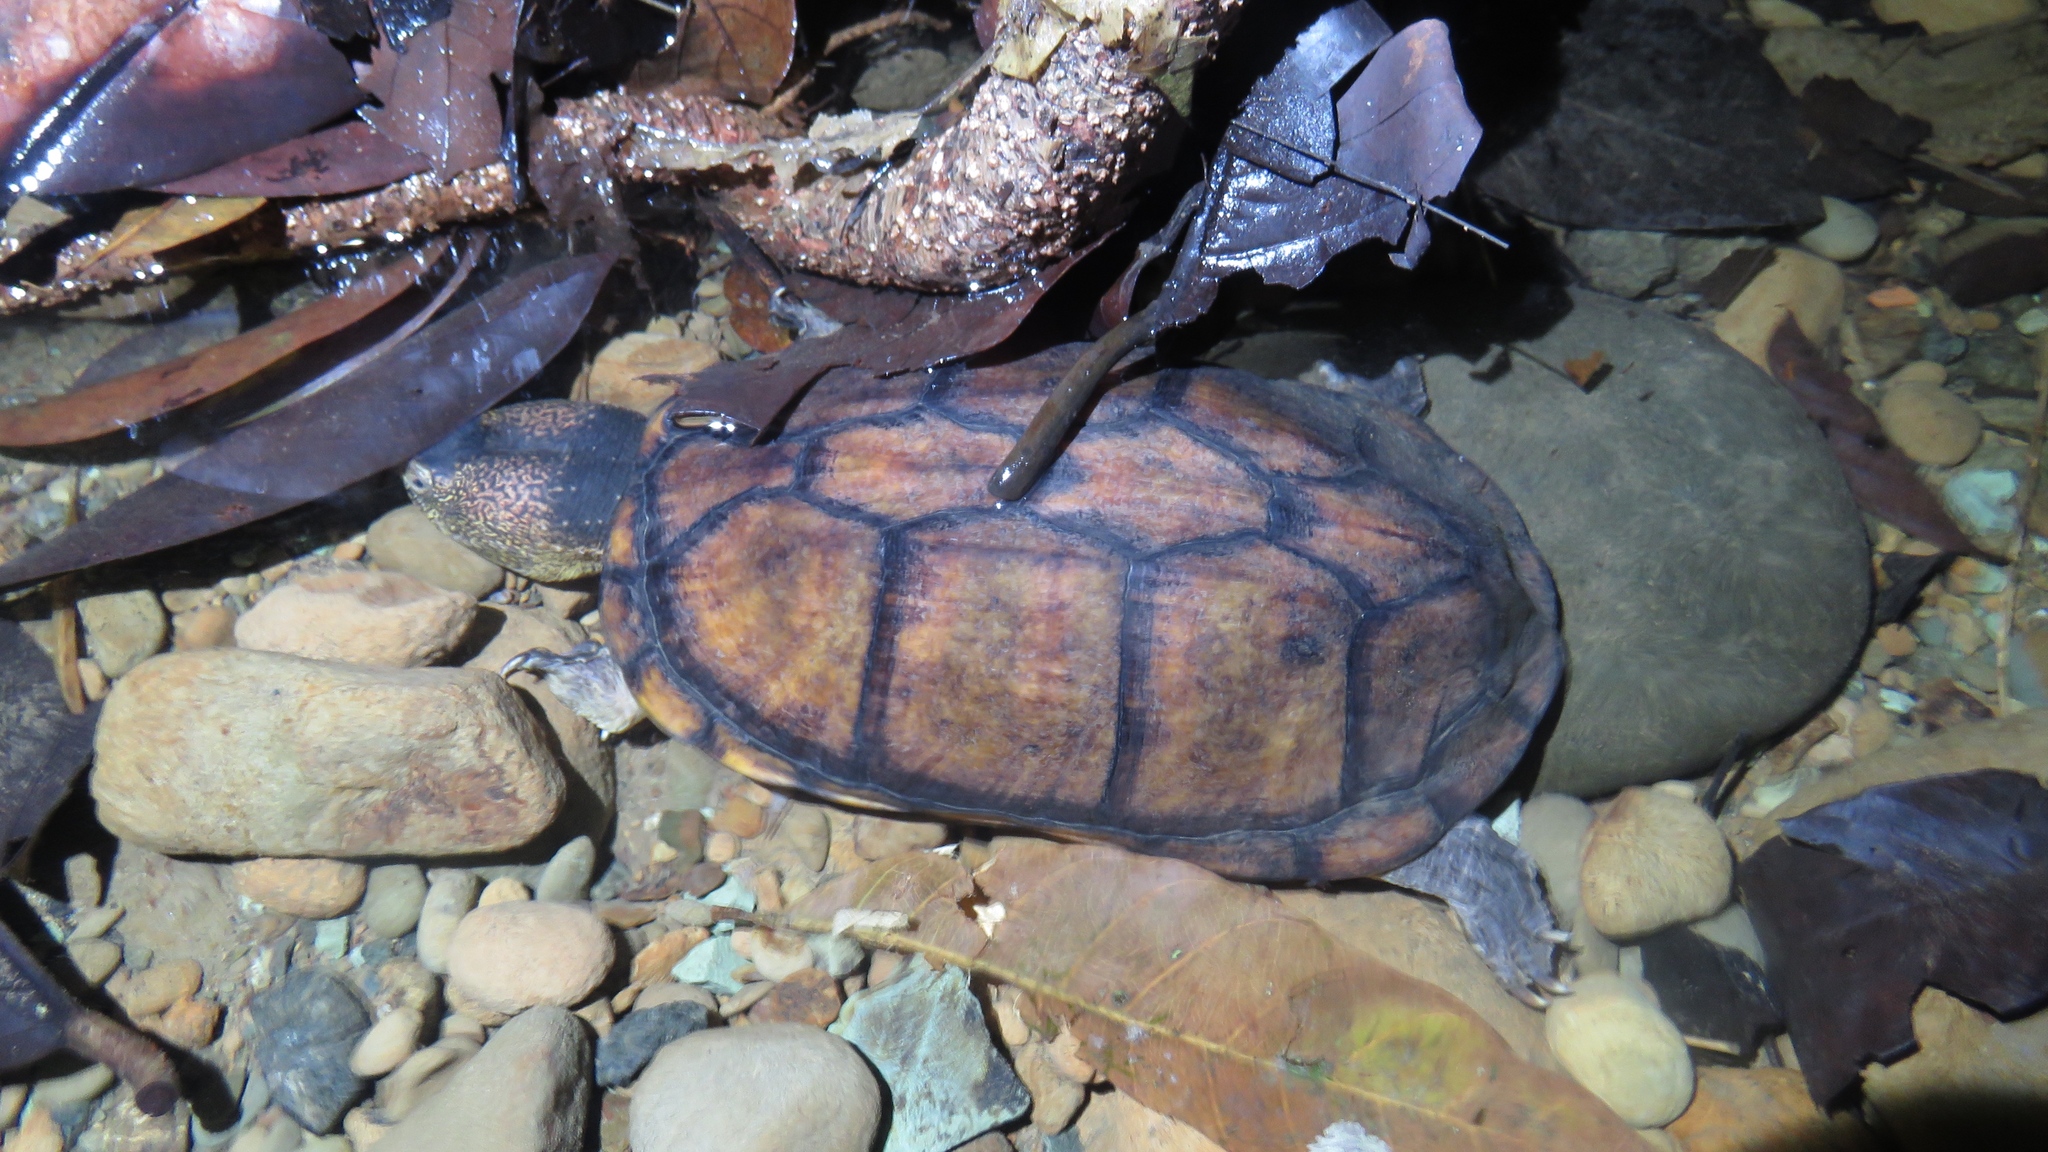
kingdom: Animalia
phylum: Chordata
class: Testudines
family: Kinosternidae
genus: Kinosternon
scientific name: Kinosternon scorpioides
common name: Scorpion mud turtle
